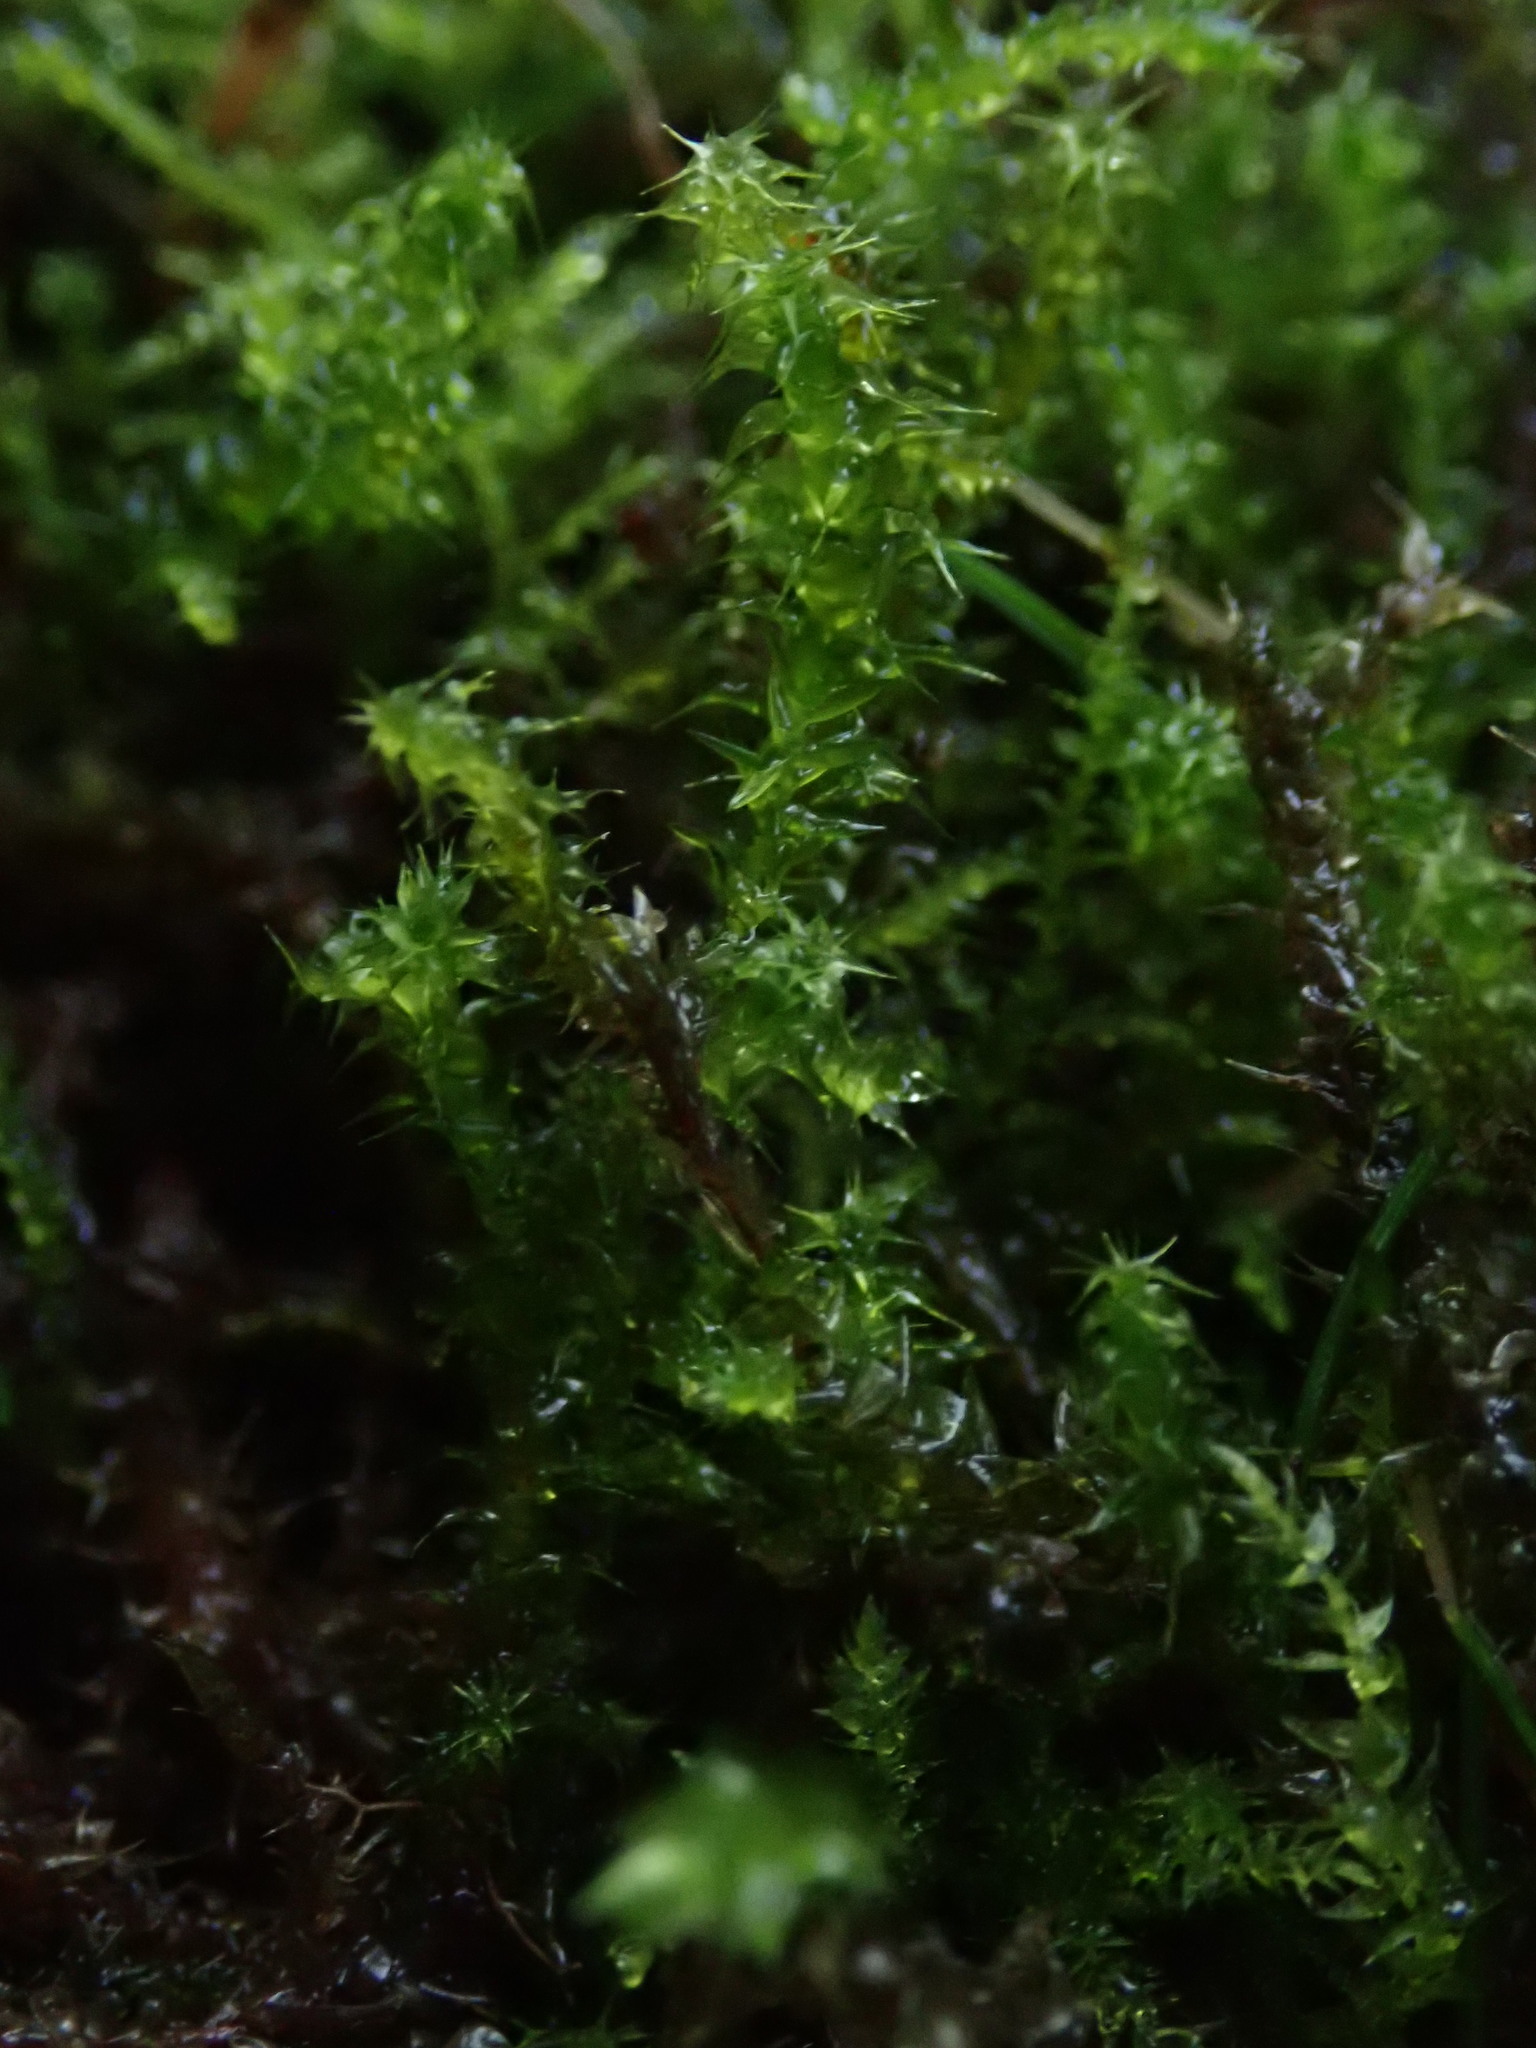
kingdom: Plantae
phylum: Bryophyta
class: Bryopsida
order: Hypnales
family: Hylocomiaceae
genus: Rhytidiadelphus
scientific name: Rhytidiadelphus squarrosus
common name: Springy turf-moss
